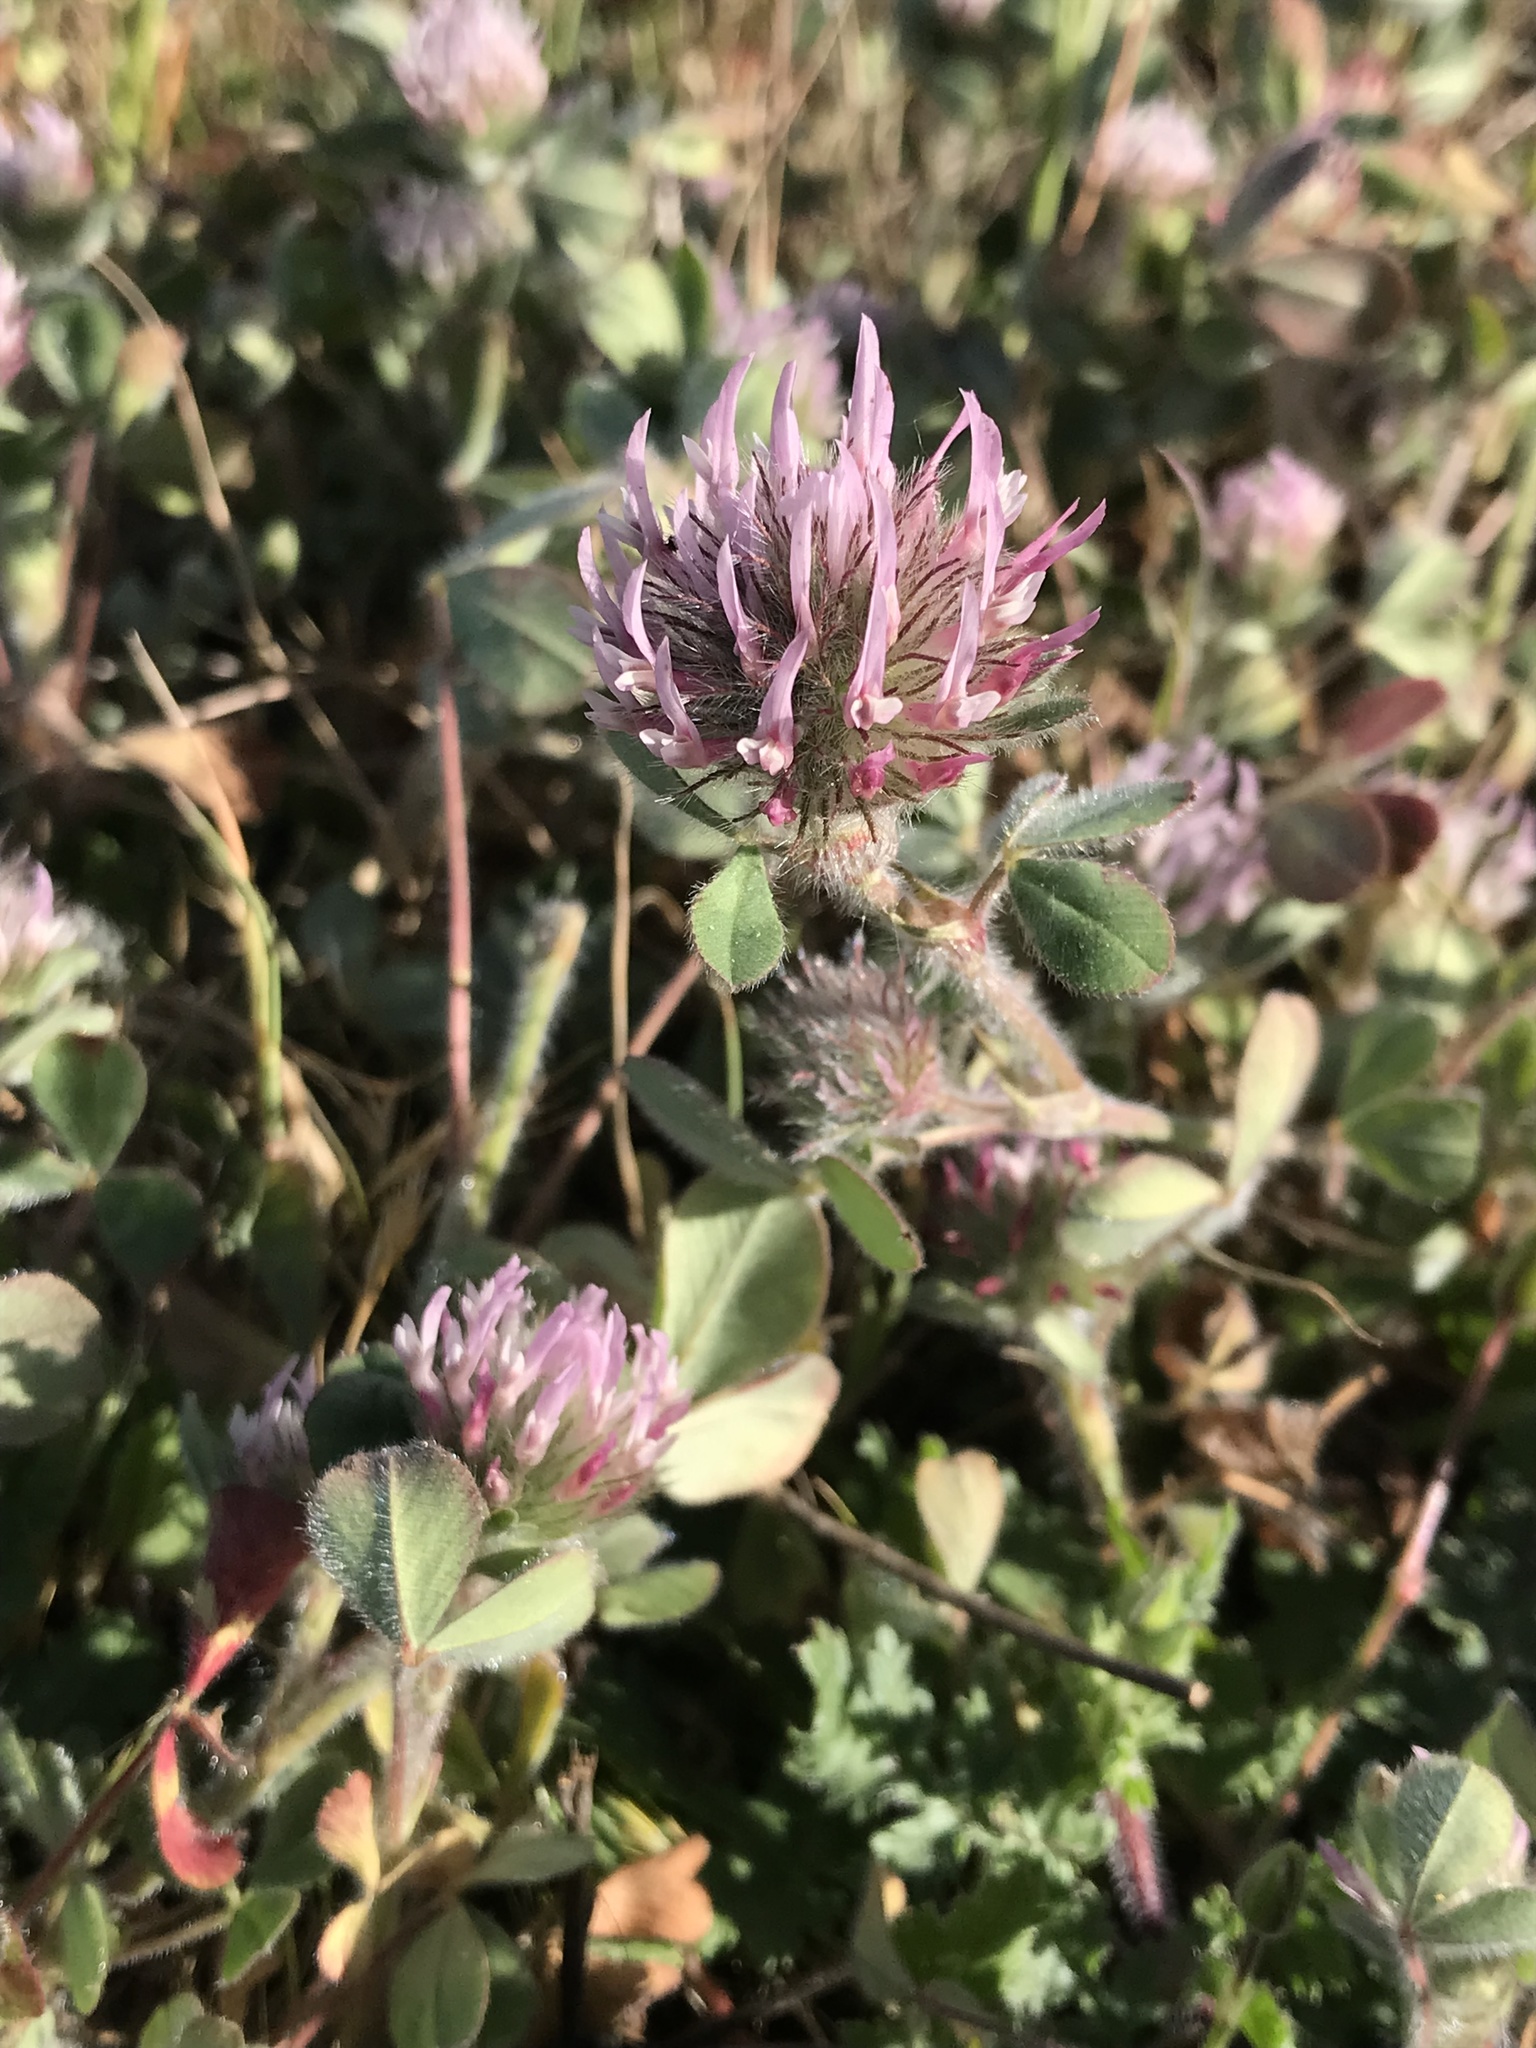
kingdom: Plantae
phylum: Tracheophyta
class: Magnoliopsida
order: Fabales
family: Fabaceae
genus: Trifolium
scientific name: Trifolium hirtum
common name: Rose clover
